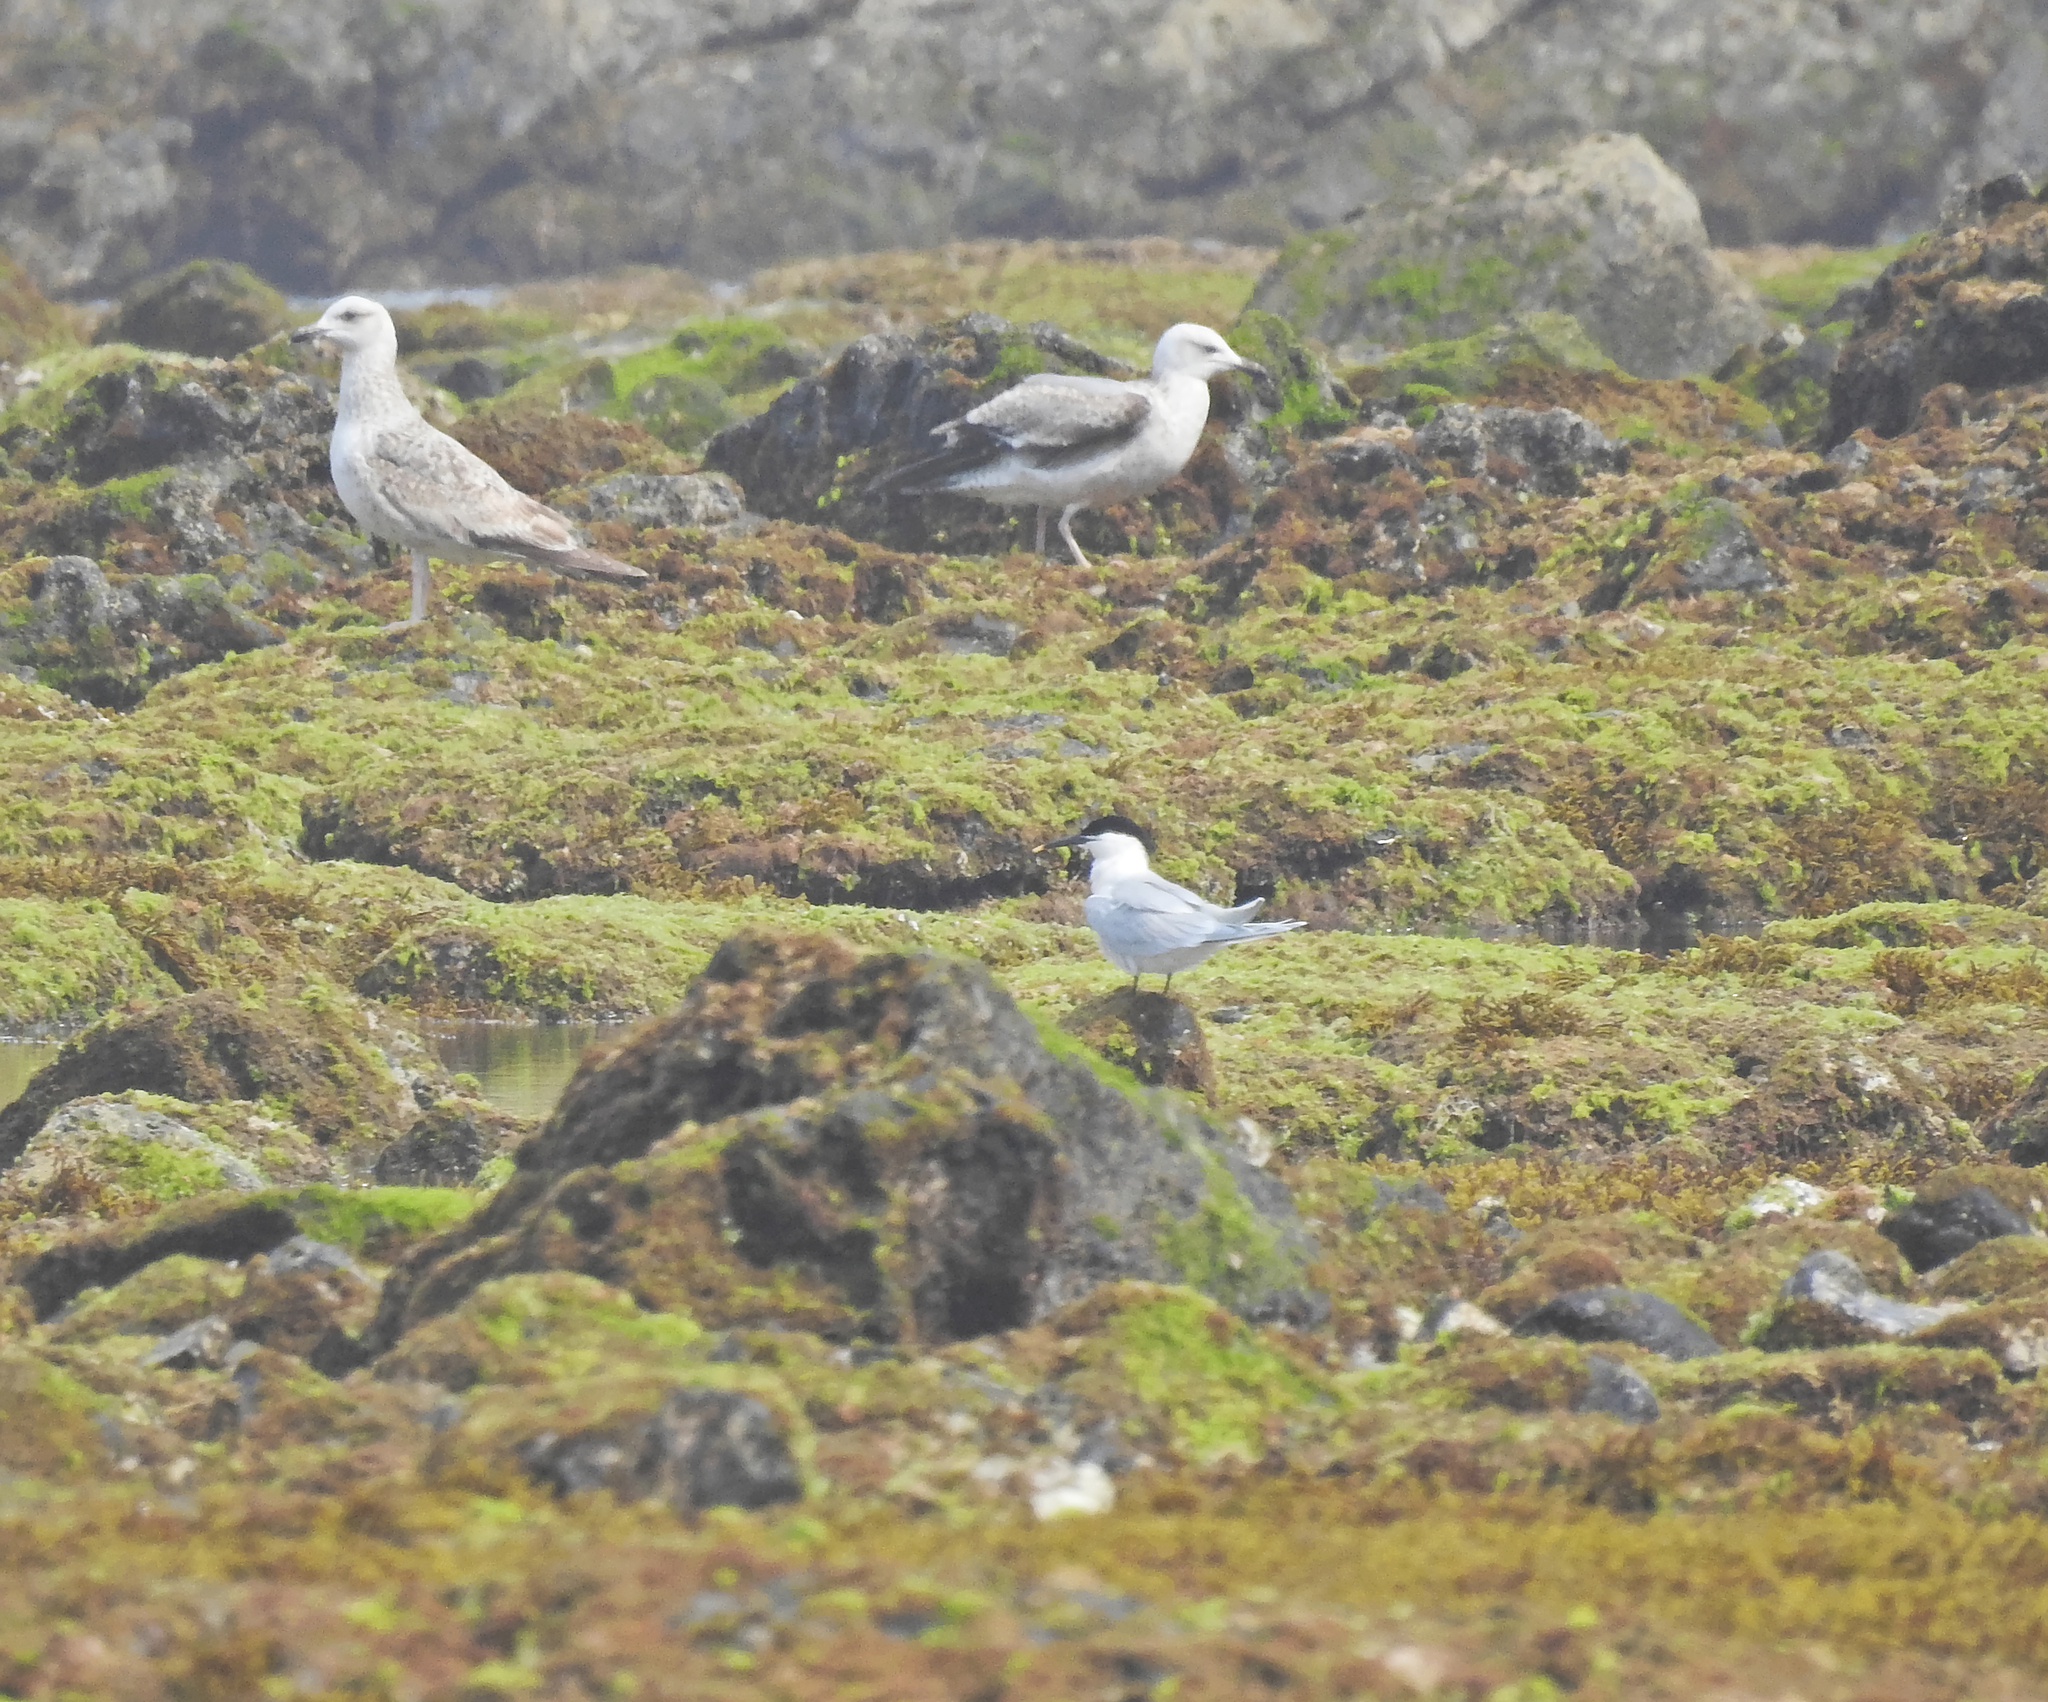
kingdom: Animalia
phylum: Chordata
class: Aves
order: Charadriiformes
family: Laridae
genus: Thalasseus
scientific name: Thalasseus sandvicensis
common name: Sandwich tern
